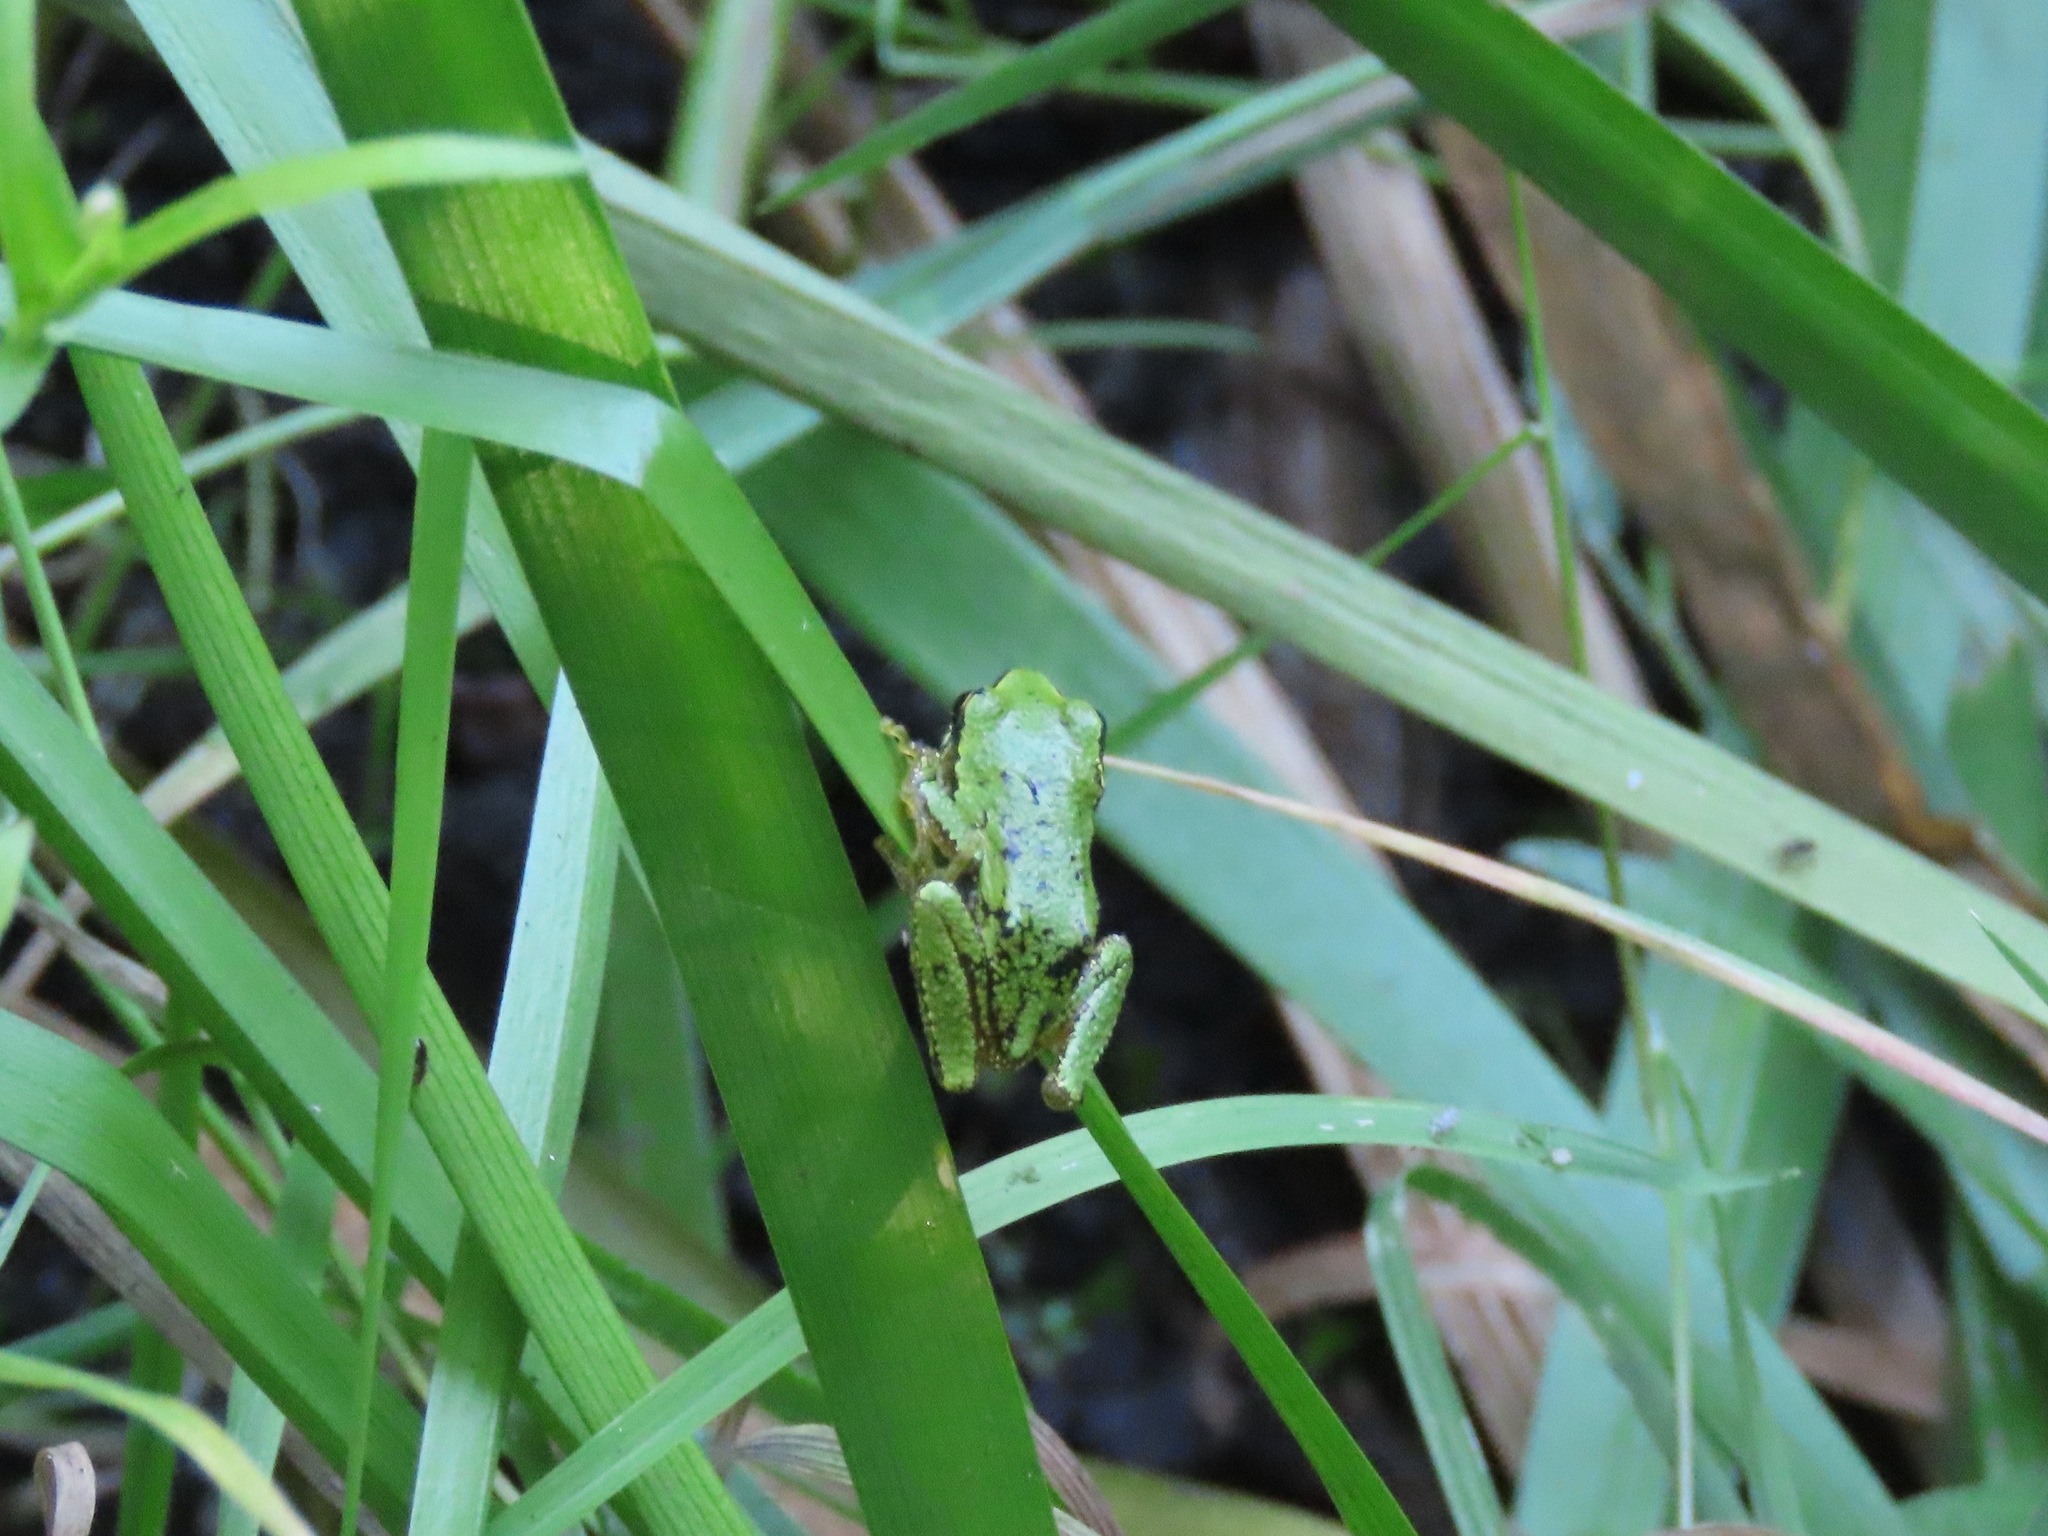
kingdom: Animalia
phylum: Chordata
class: Amphibia
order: Anura
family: Hylidae
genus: Pseudacris
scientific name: Pseudacris regilla
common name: Pacific chorus frog
